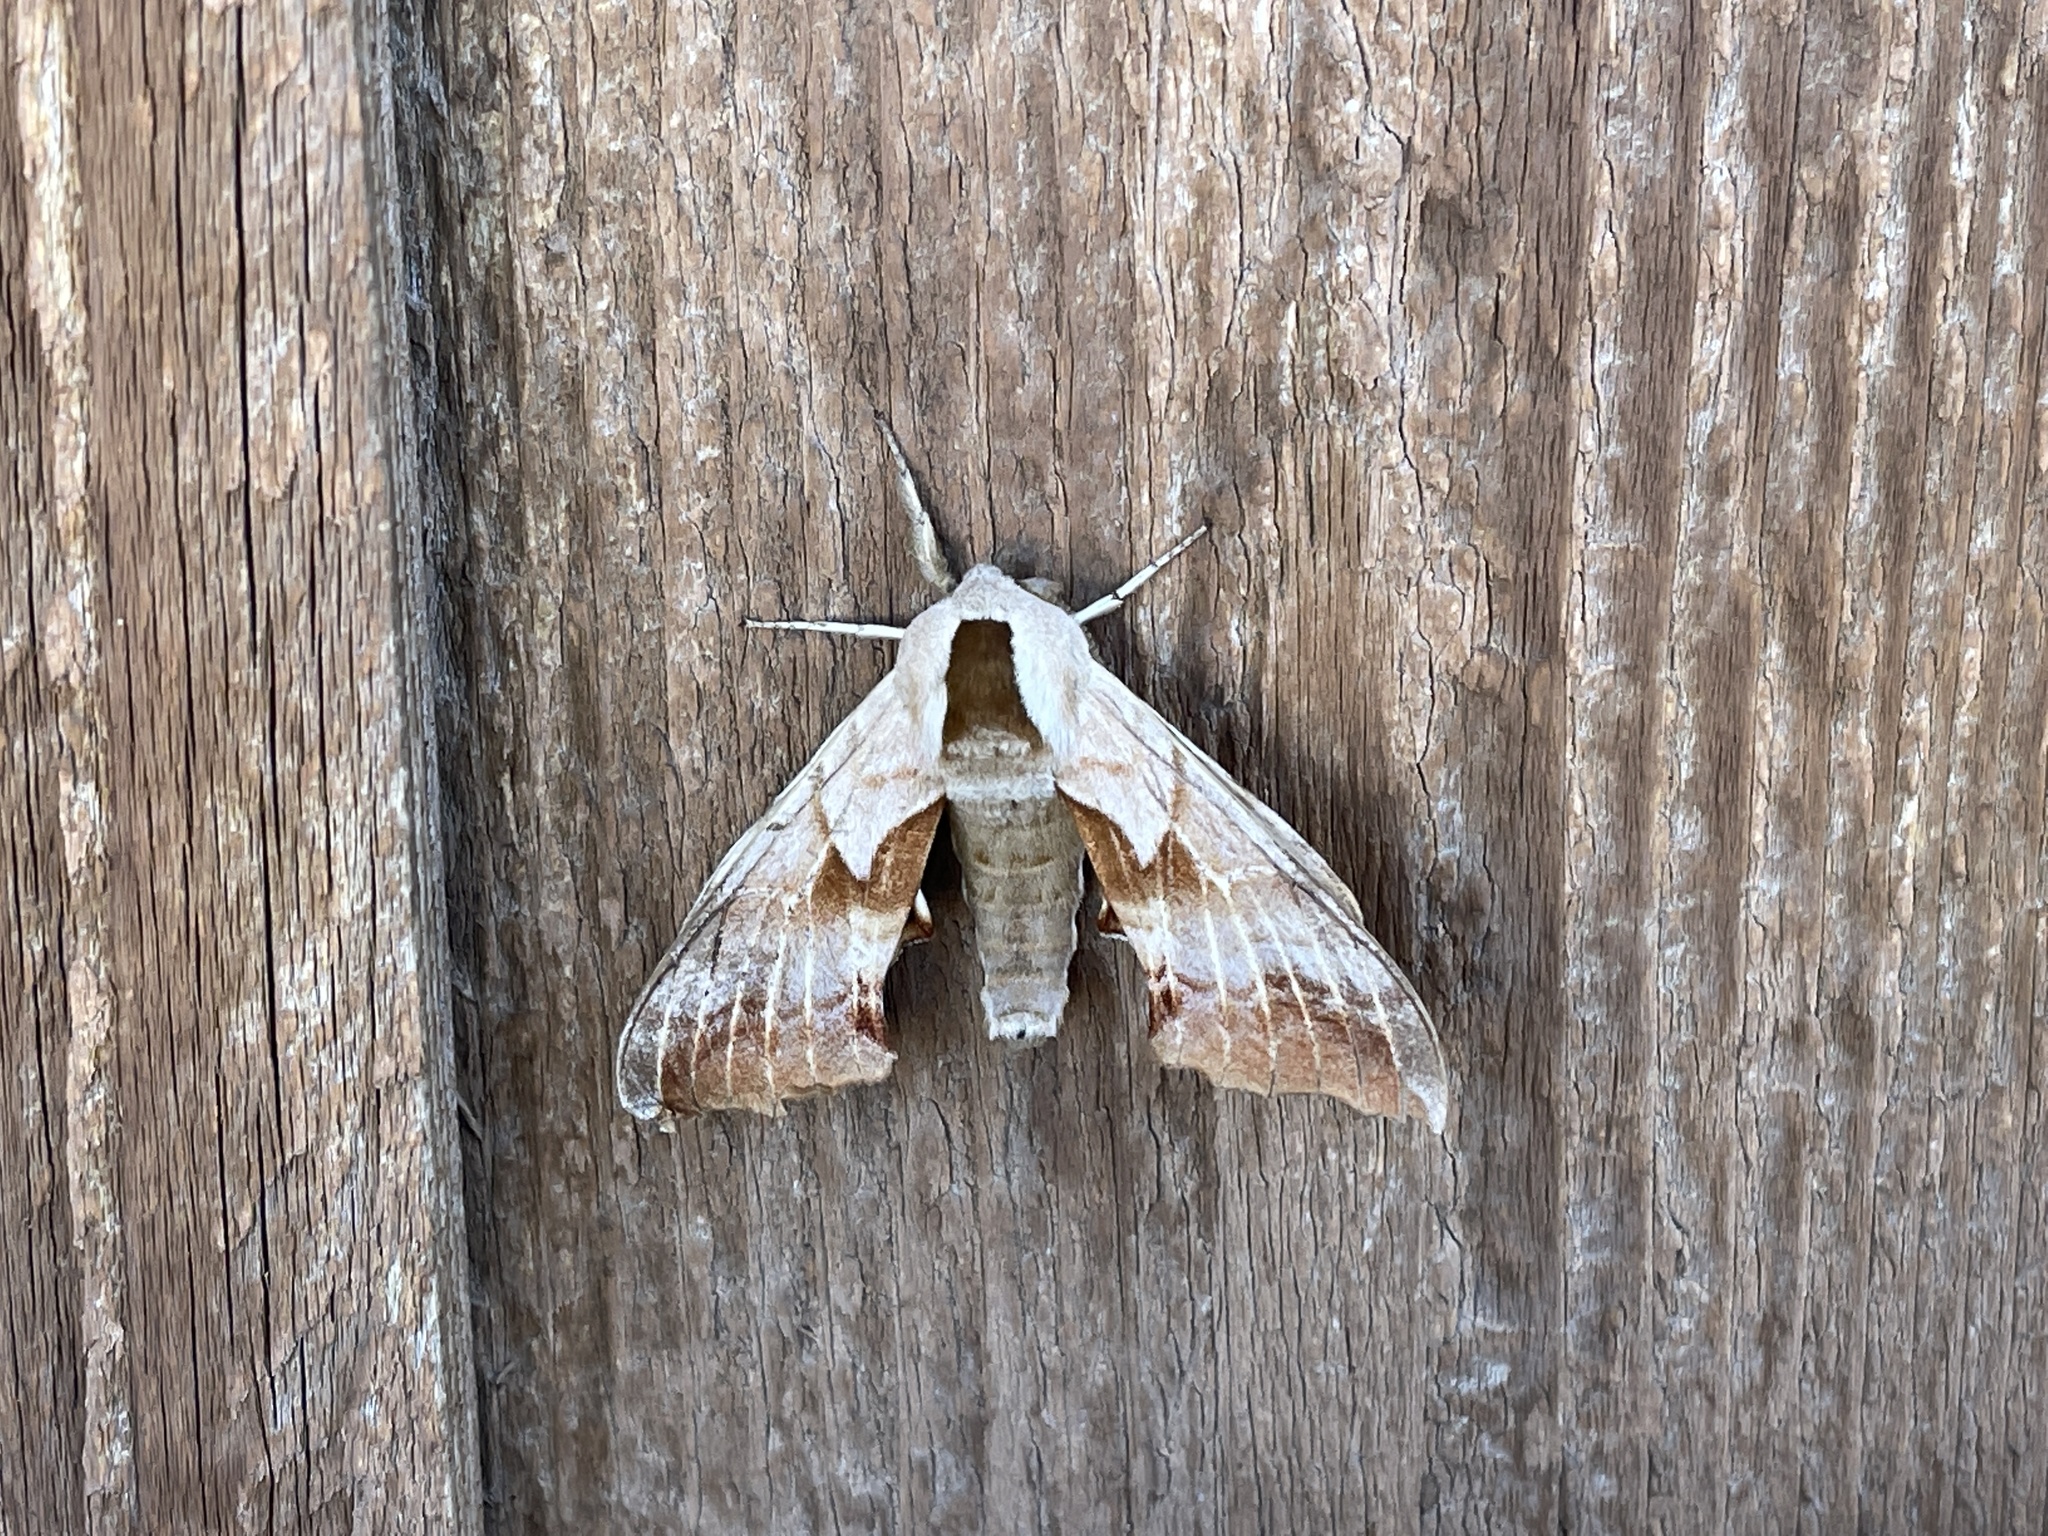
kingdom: Animalia
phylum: Arthropoda
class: Insecta
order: Lepidoptera
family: Sphingidae
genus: Smerinthus
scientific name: Smerinthus cerisyi
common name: Cerisy's sphinx moth
